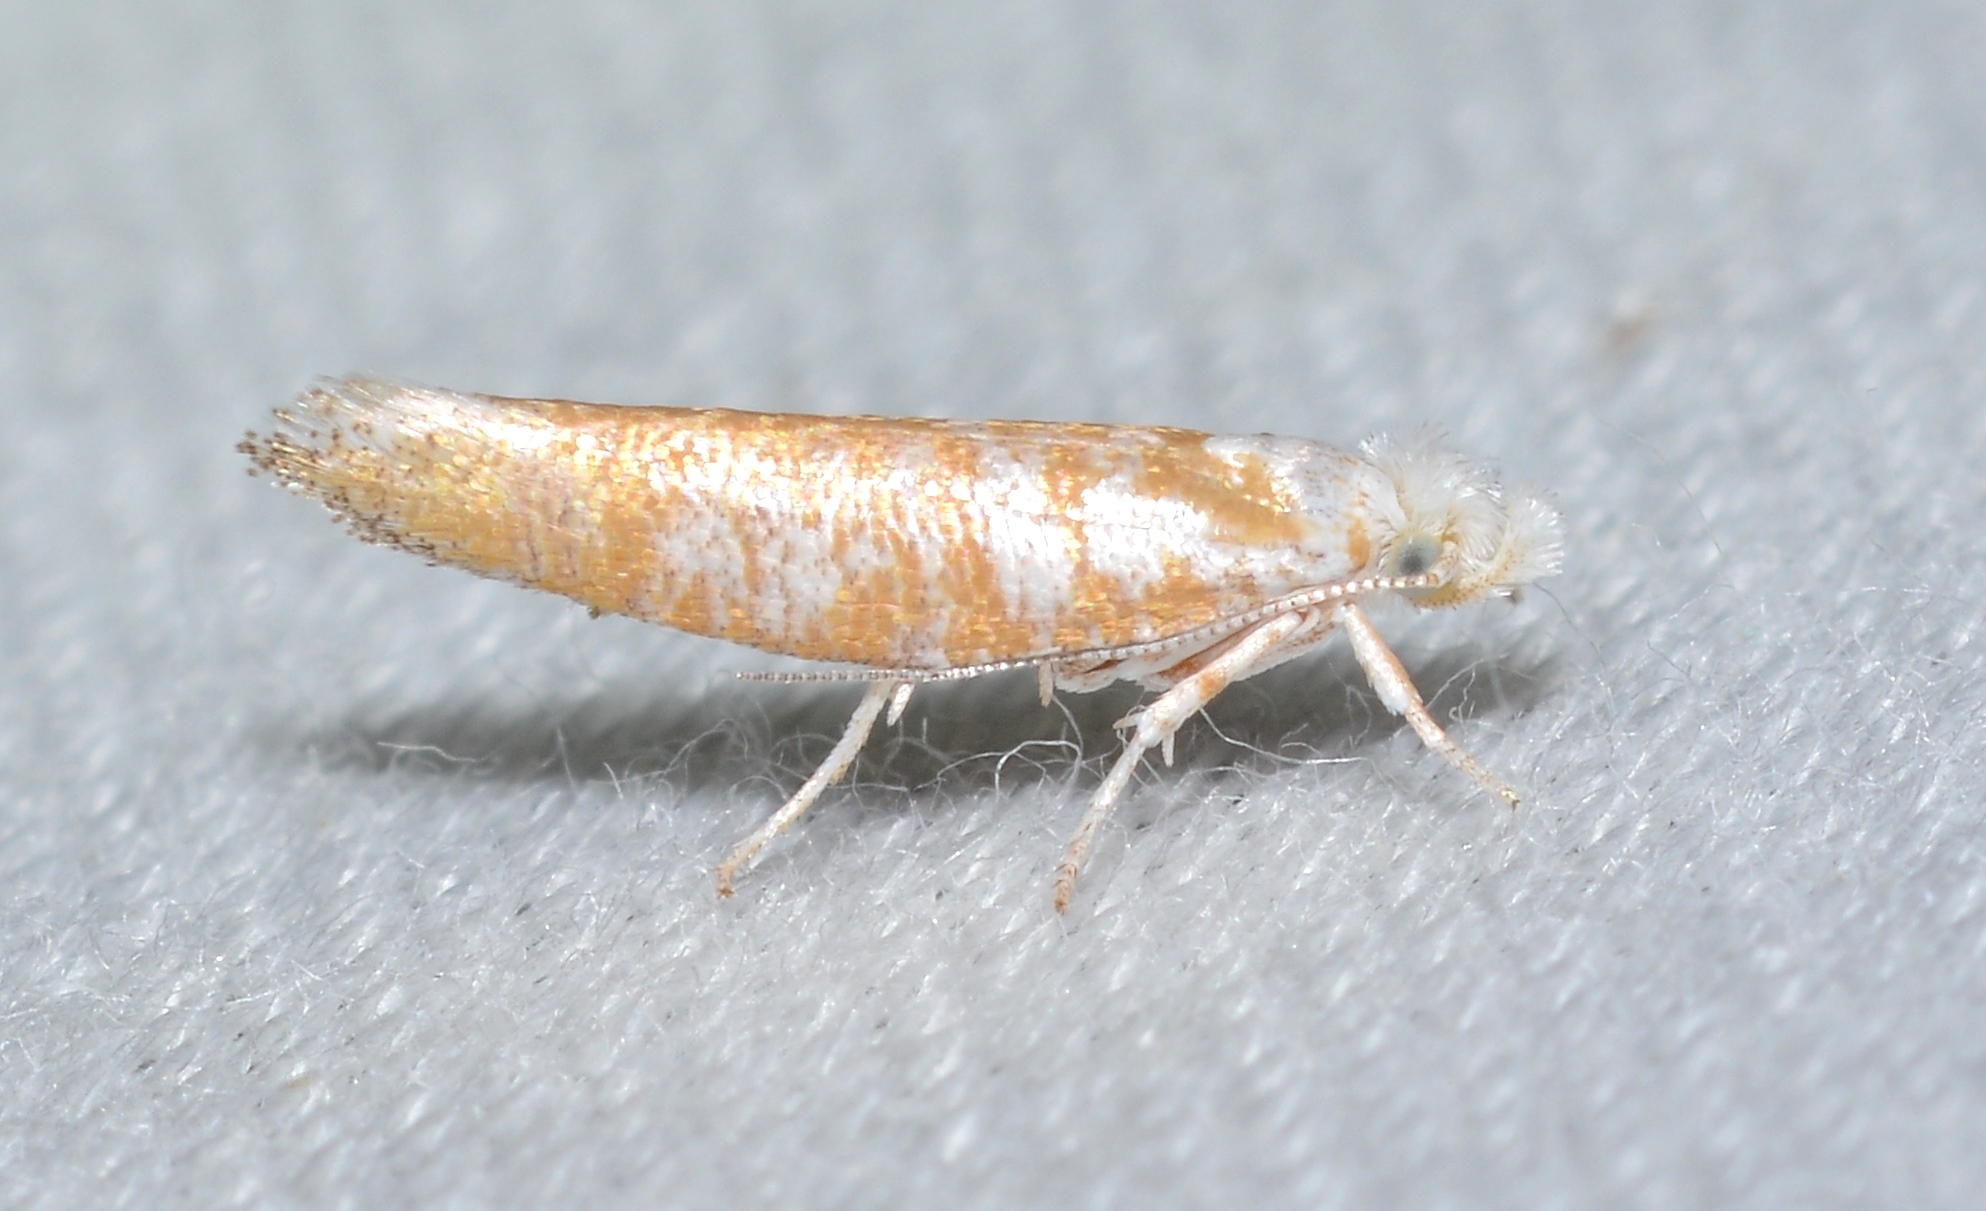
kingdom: Animalia
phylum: Arthropoda
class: Insecta
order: Lepidoptera
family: Yponomeutidae
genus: Zelleria
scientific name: Zelleria retiniella
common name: Brindled zelleria
